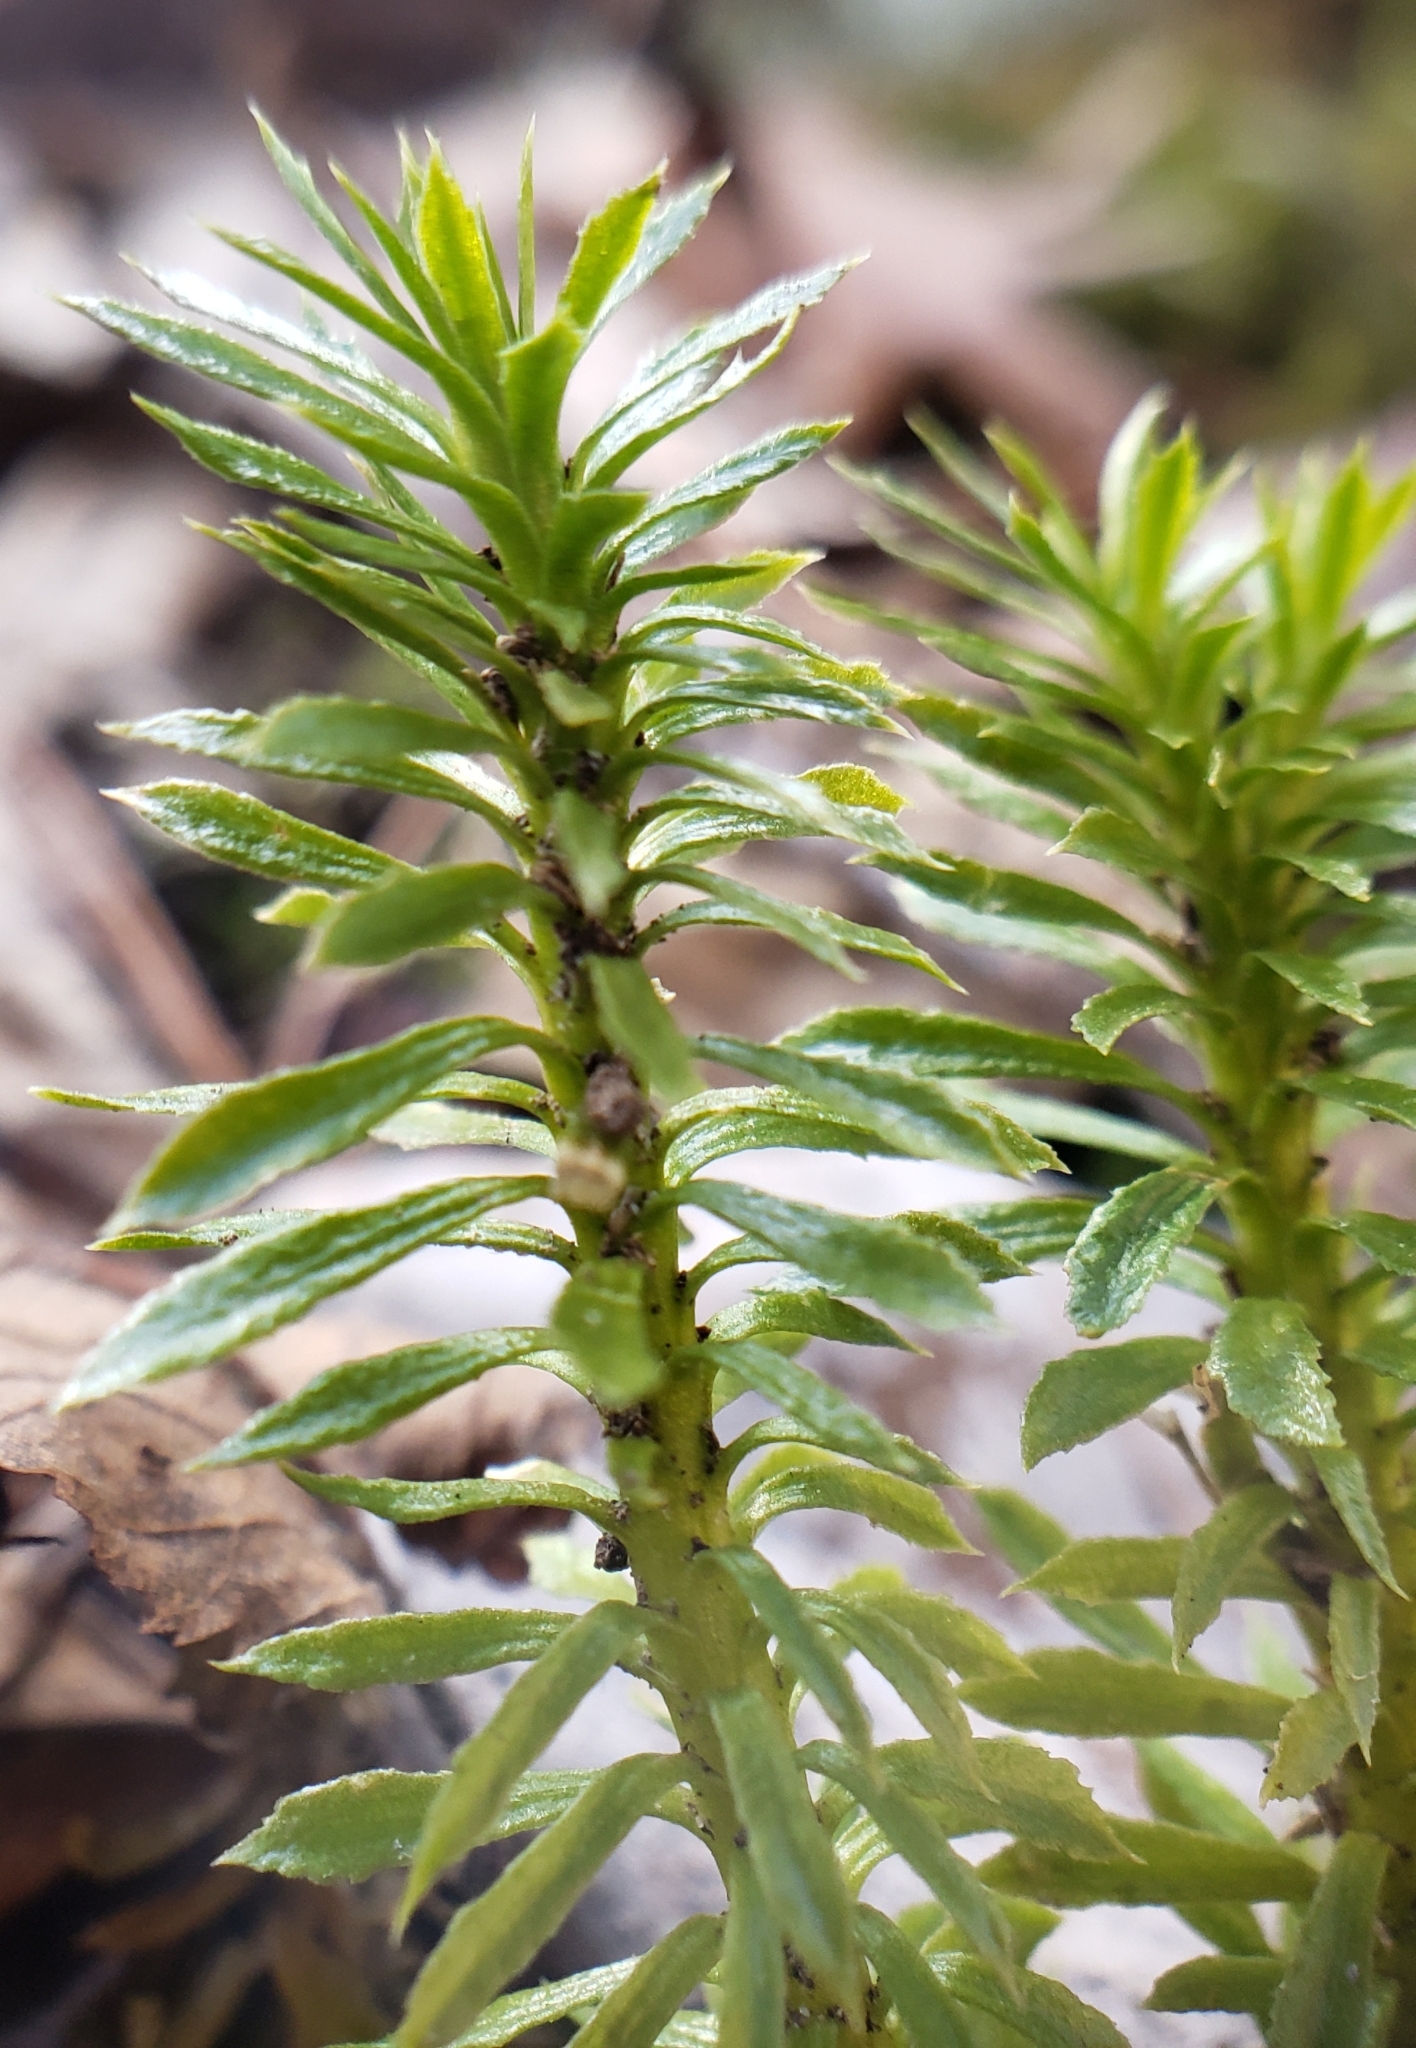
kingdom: Plantae
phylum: Tracheophyta
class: Lycopodiopsida
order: Lycopodiales
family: Lycopodiaceae
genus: Huperzia
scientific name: Huperzia lucidula
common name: Shining clubmoss
